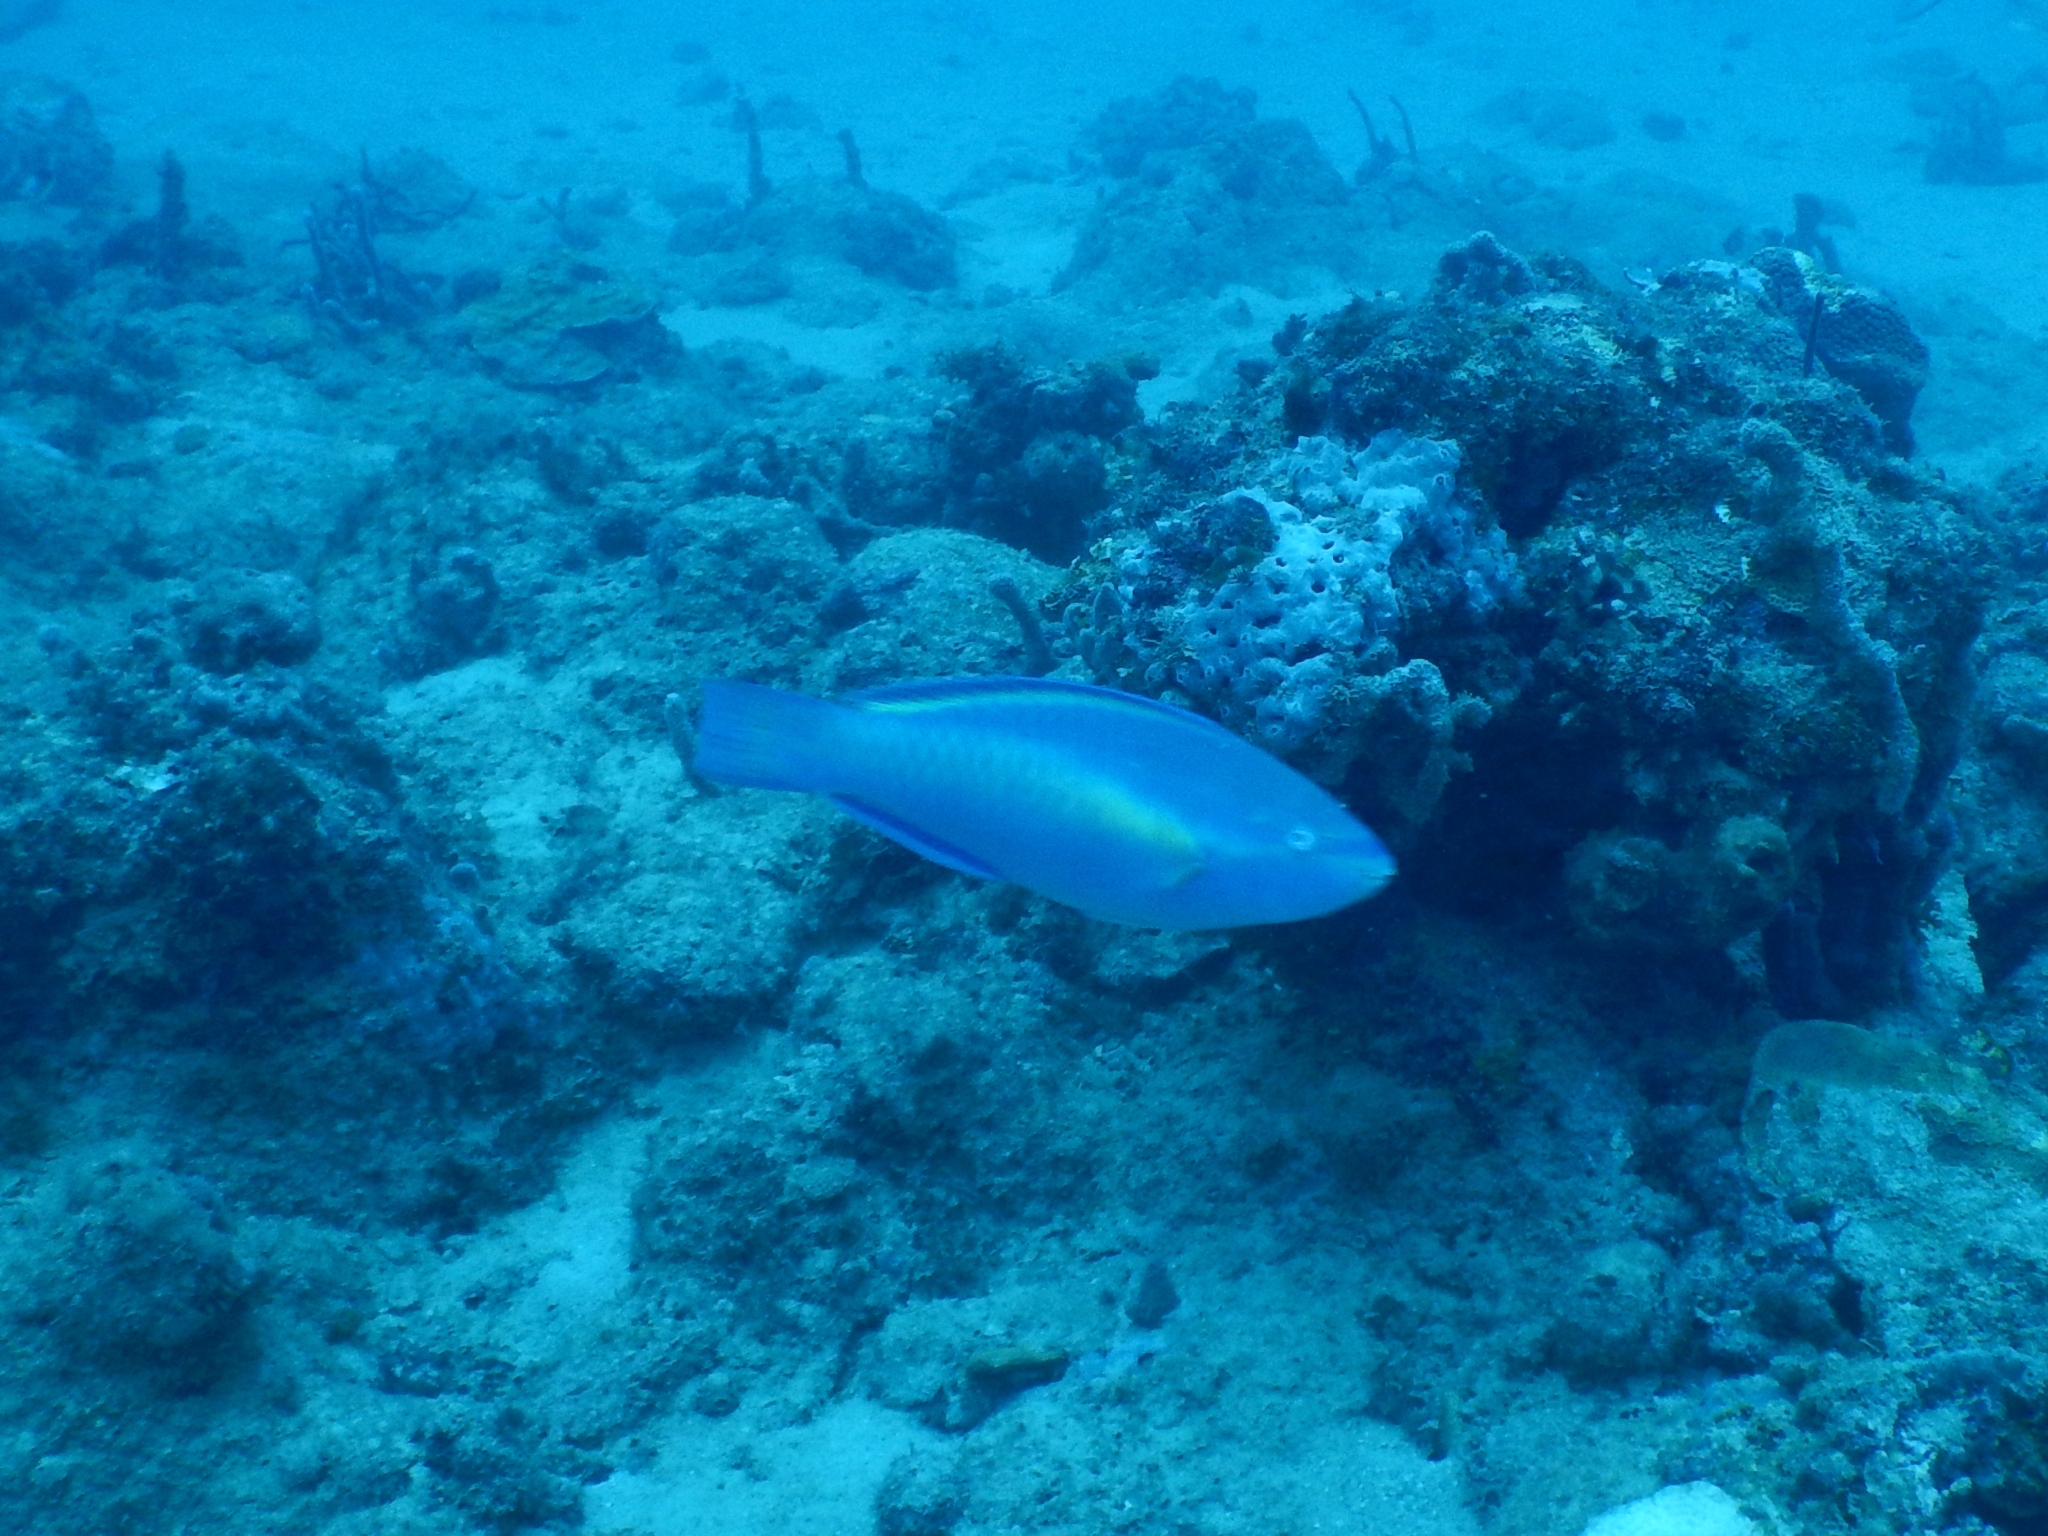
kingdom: Animalia
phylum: Chordata
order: Perciformes
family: Scaridae
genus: Scarus
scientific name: Scarus taeniopterus
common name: Princess parrotfish
